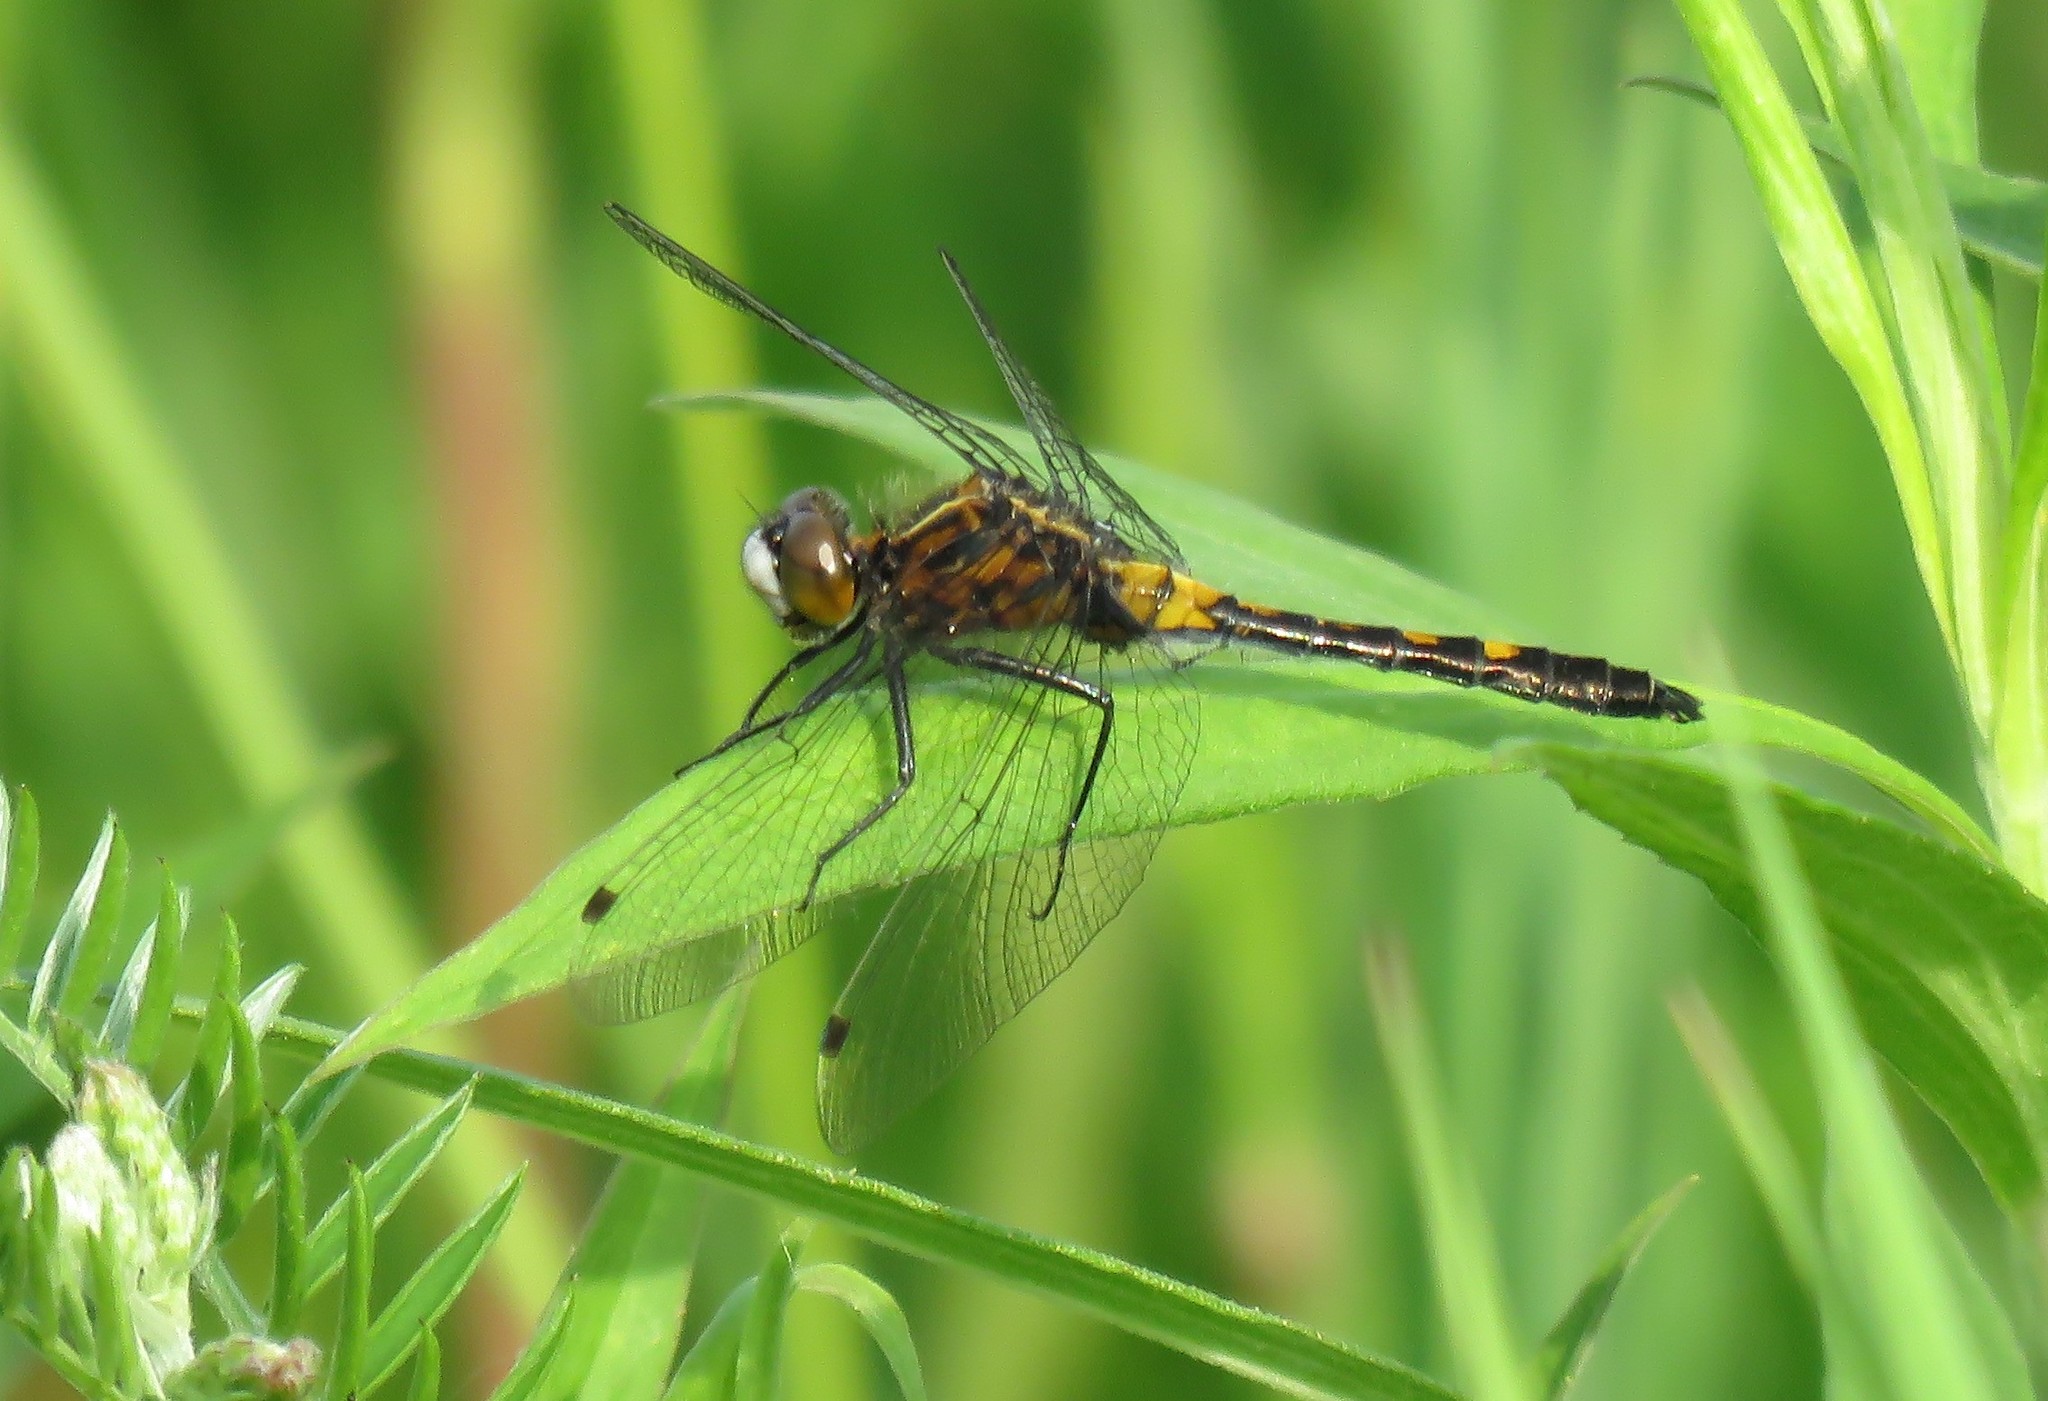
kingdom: Animalia
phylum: Arthropoda
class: Insecta
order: Odonata
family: Libellulidae
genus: Leucorrhinia
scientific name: Leucorrhinia intacta
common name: Dot-tailed whiteface
